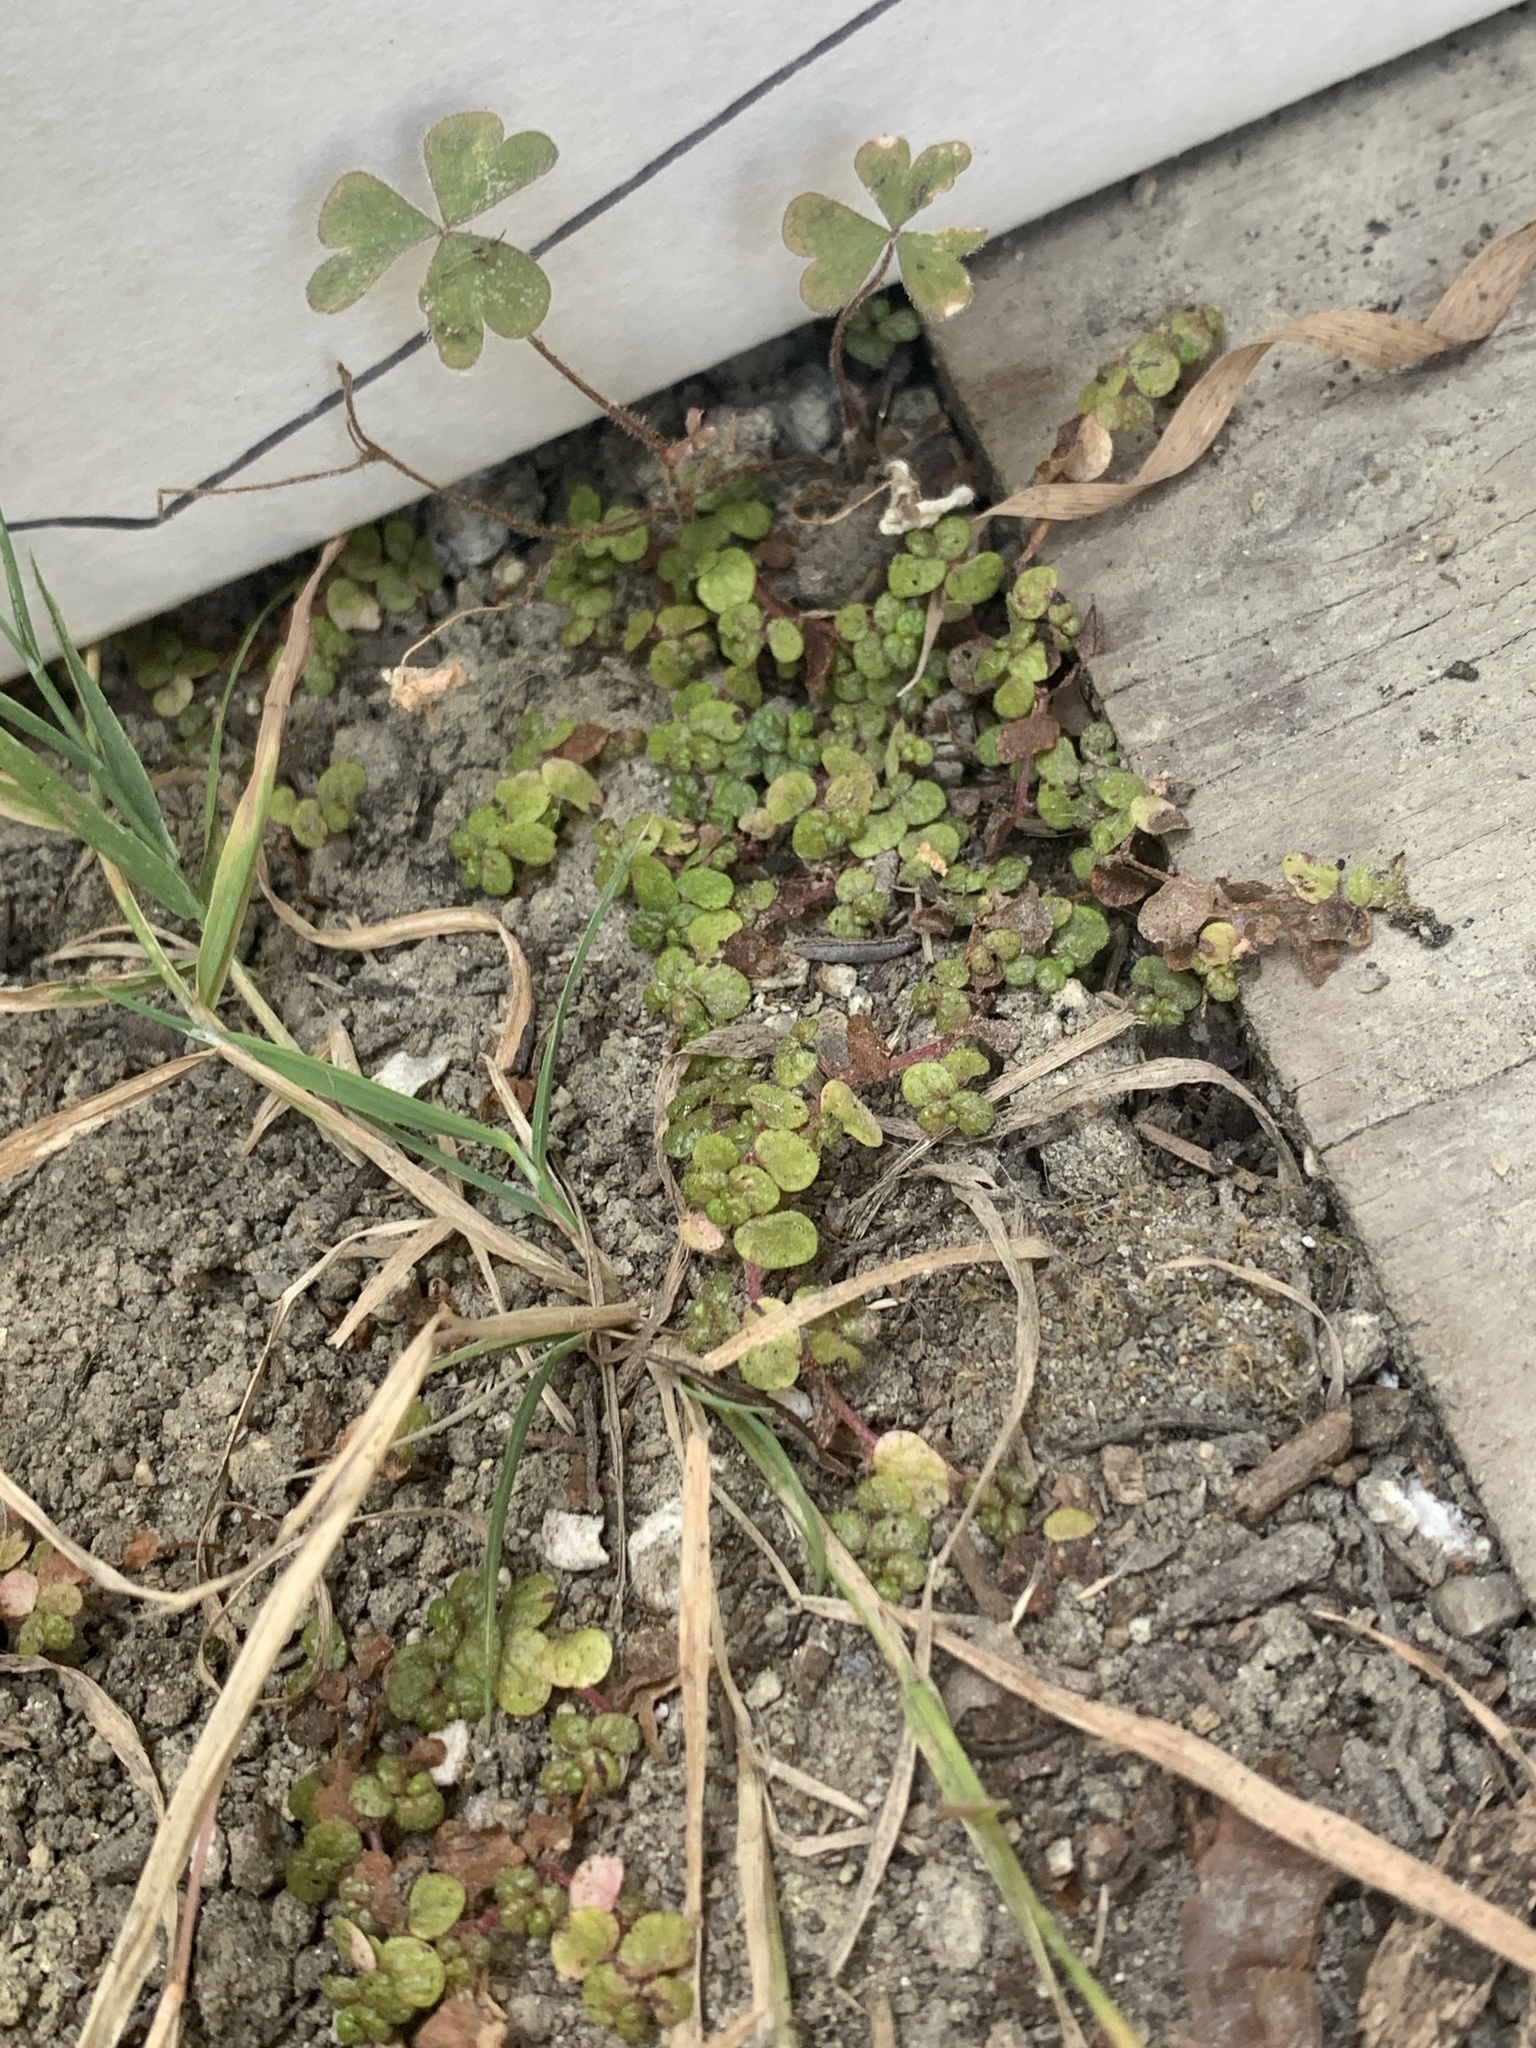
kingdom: Plantae
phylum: Tracheophyta
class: Magnoliopsida
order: Rosales
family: Urticaceae
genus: Soleirolia
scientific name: Soleirolia soleirolii
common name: Mind-your-own-business
